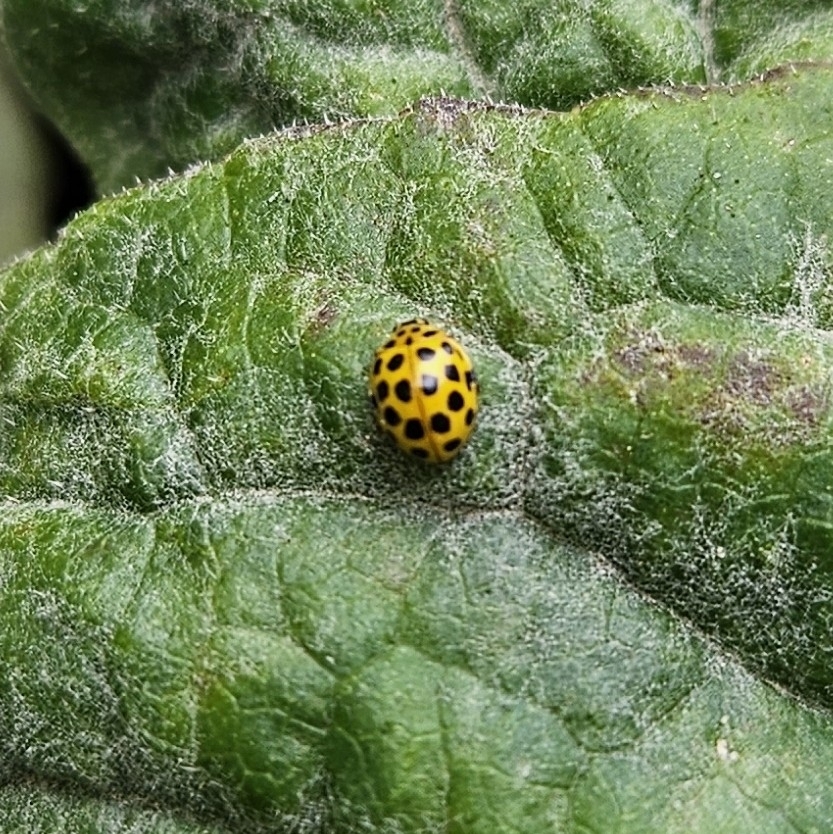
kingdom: Animalia
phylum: Arthropoda
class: Insecta
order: Coleoptera
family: Coccinellidae
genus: Psyllobora
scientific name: Psyllobora vigintiduopunctata
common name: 22-spot ladybird
